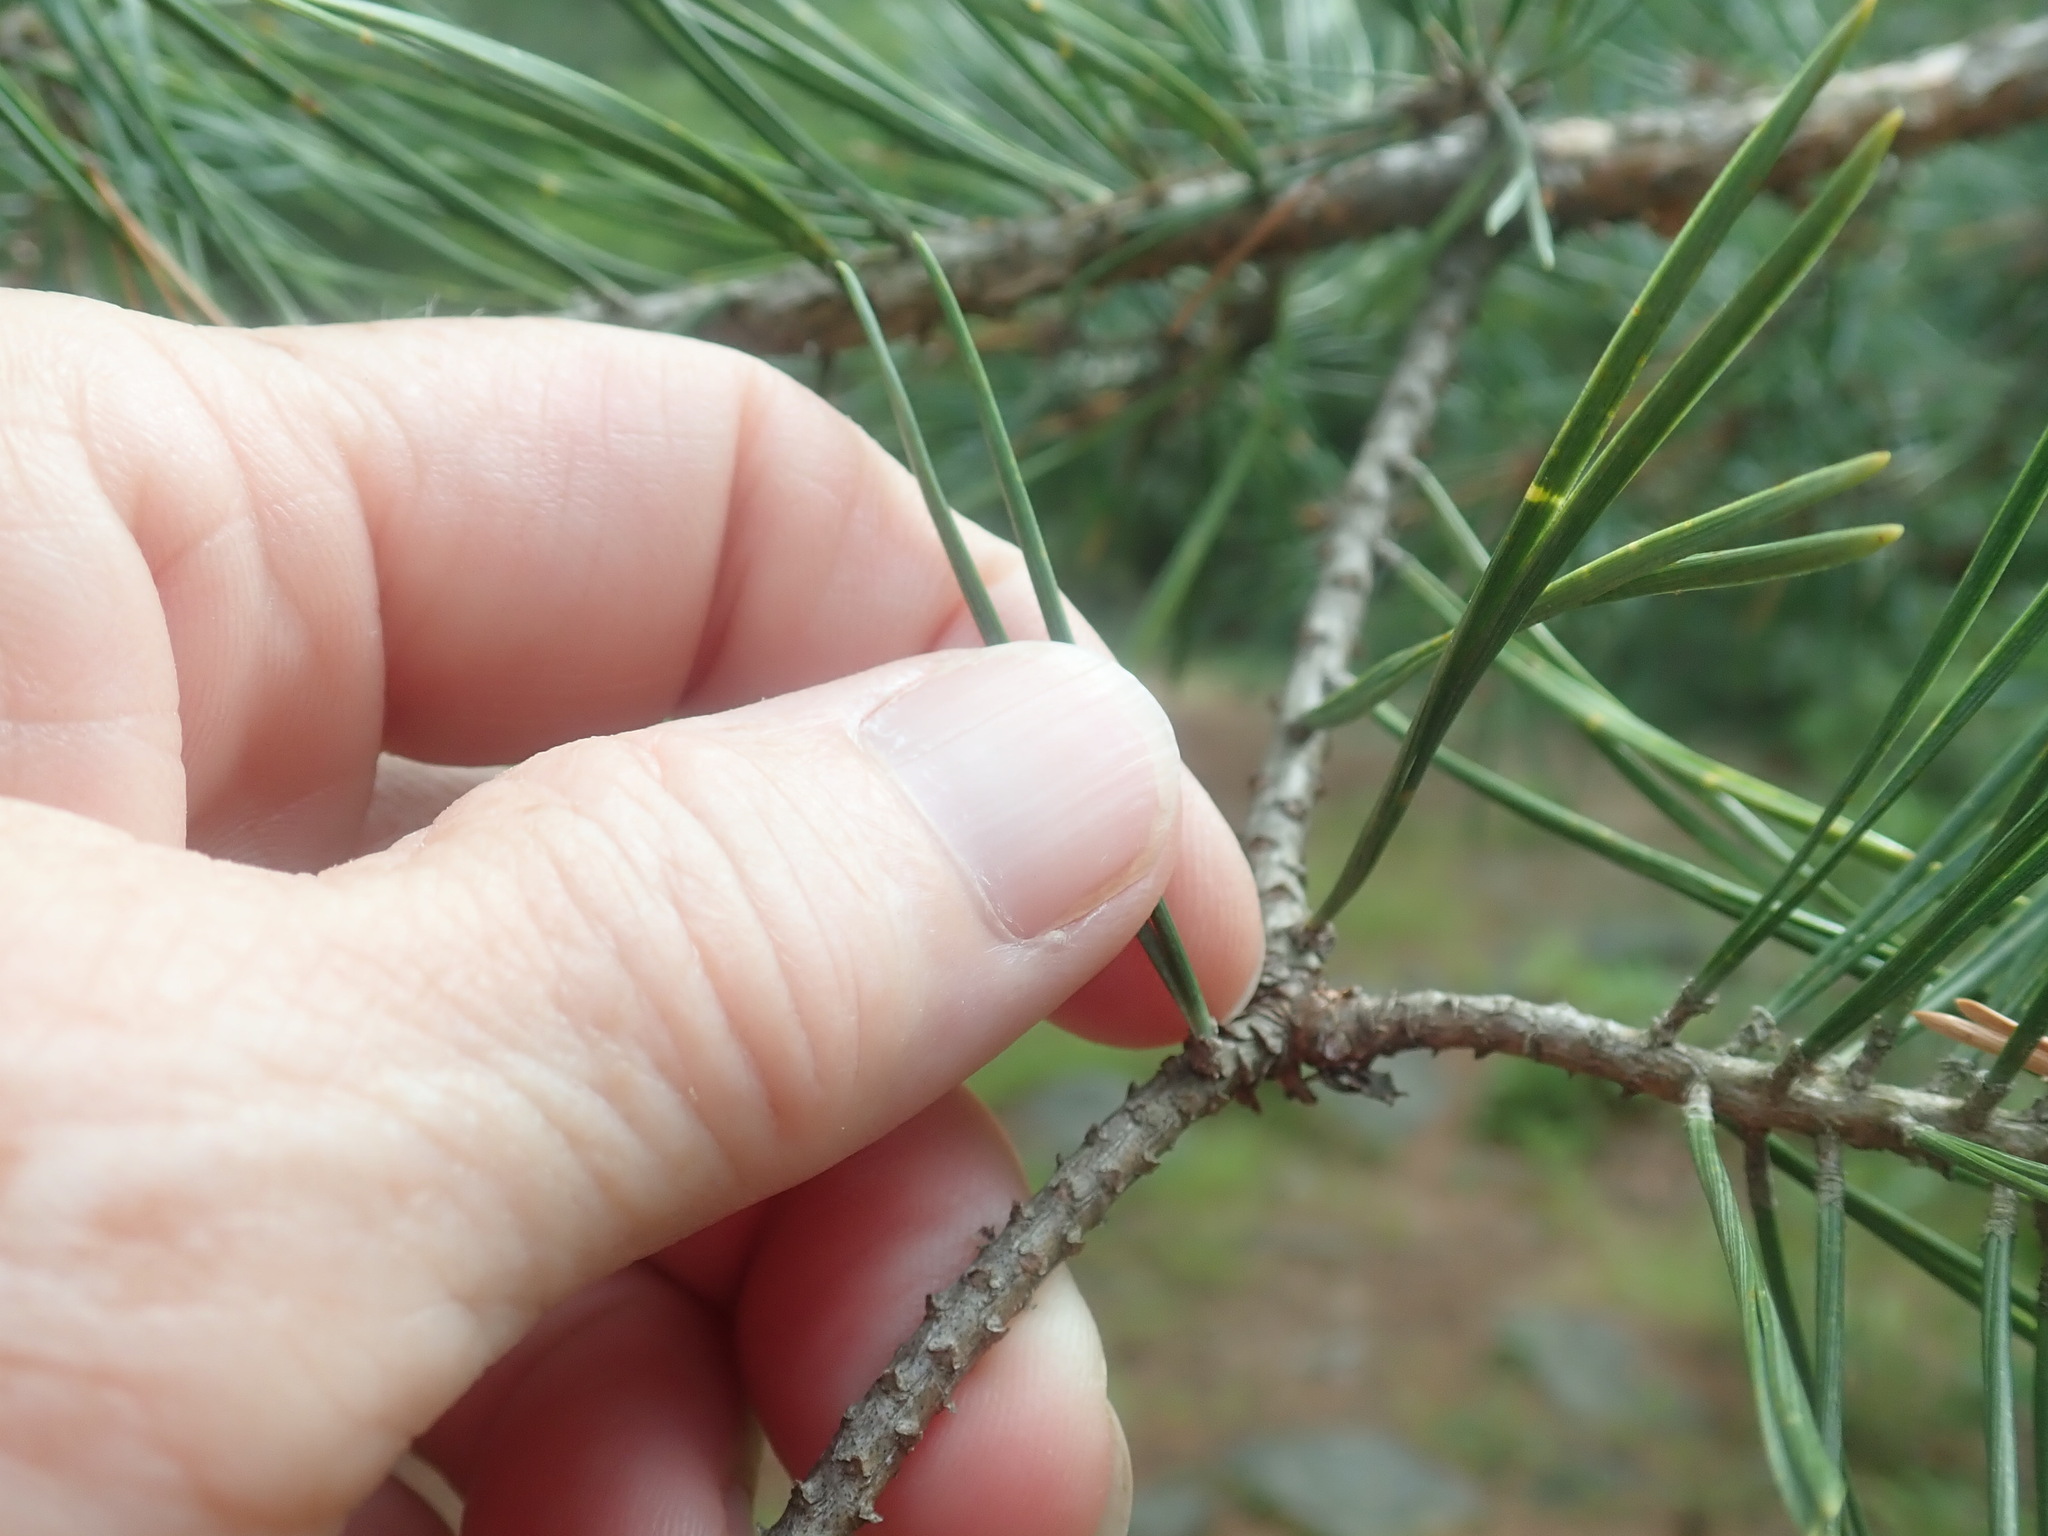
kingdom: Plantae
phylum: Tracheophyta
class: Pinopsida
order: Pinales
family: Pinaceae
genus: Pinus
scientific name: Pinus sylvestris
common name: Scots pine
